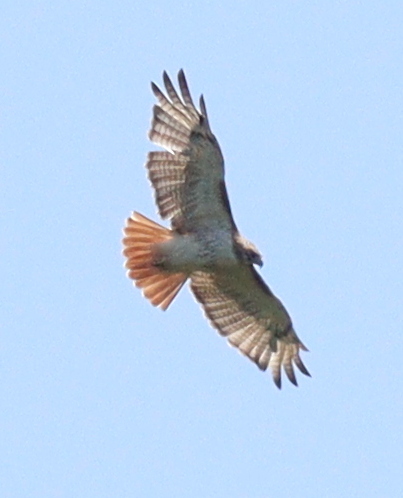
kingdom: Animalia
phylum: Chordata
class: Aves
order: Accipitriformes
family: Accipitridae
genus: Buteo
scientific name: Buteo jamaicensis
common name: Red-tailed hawk
